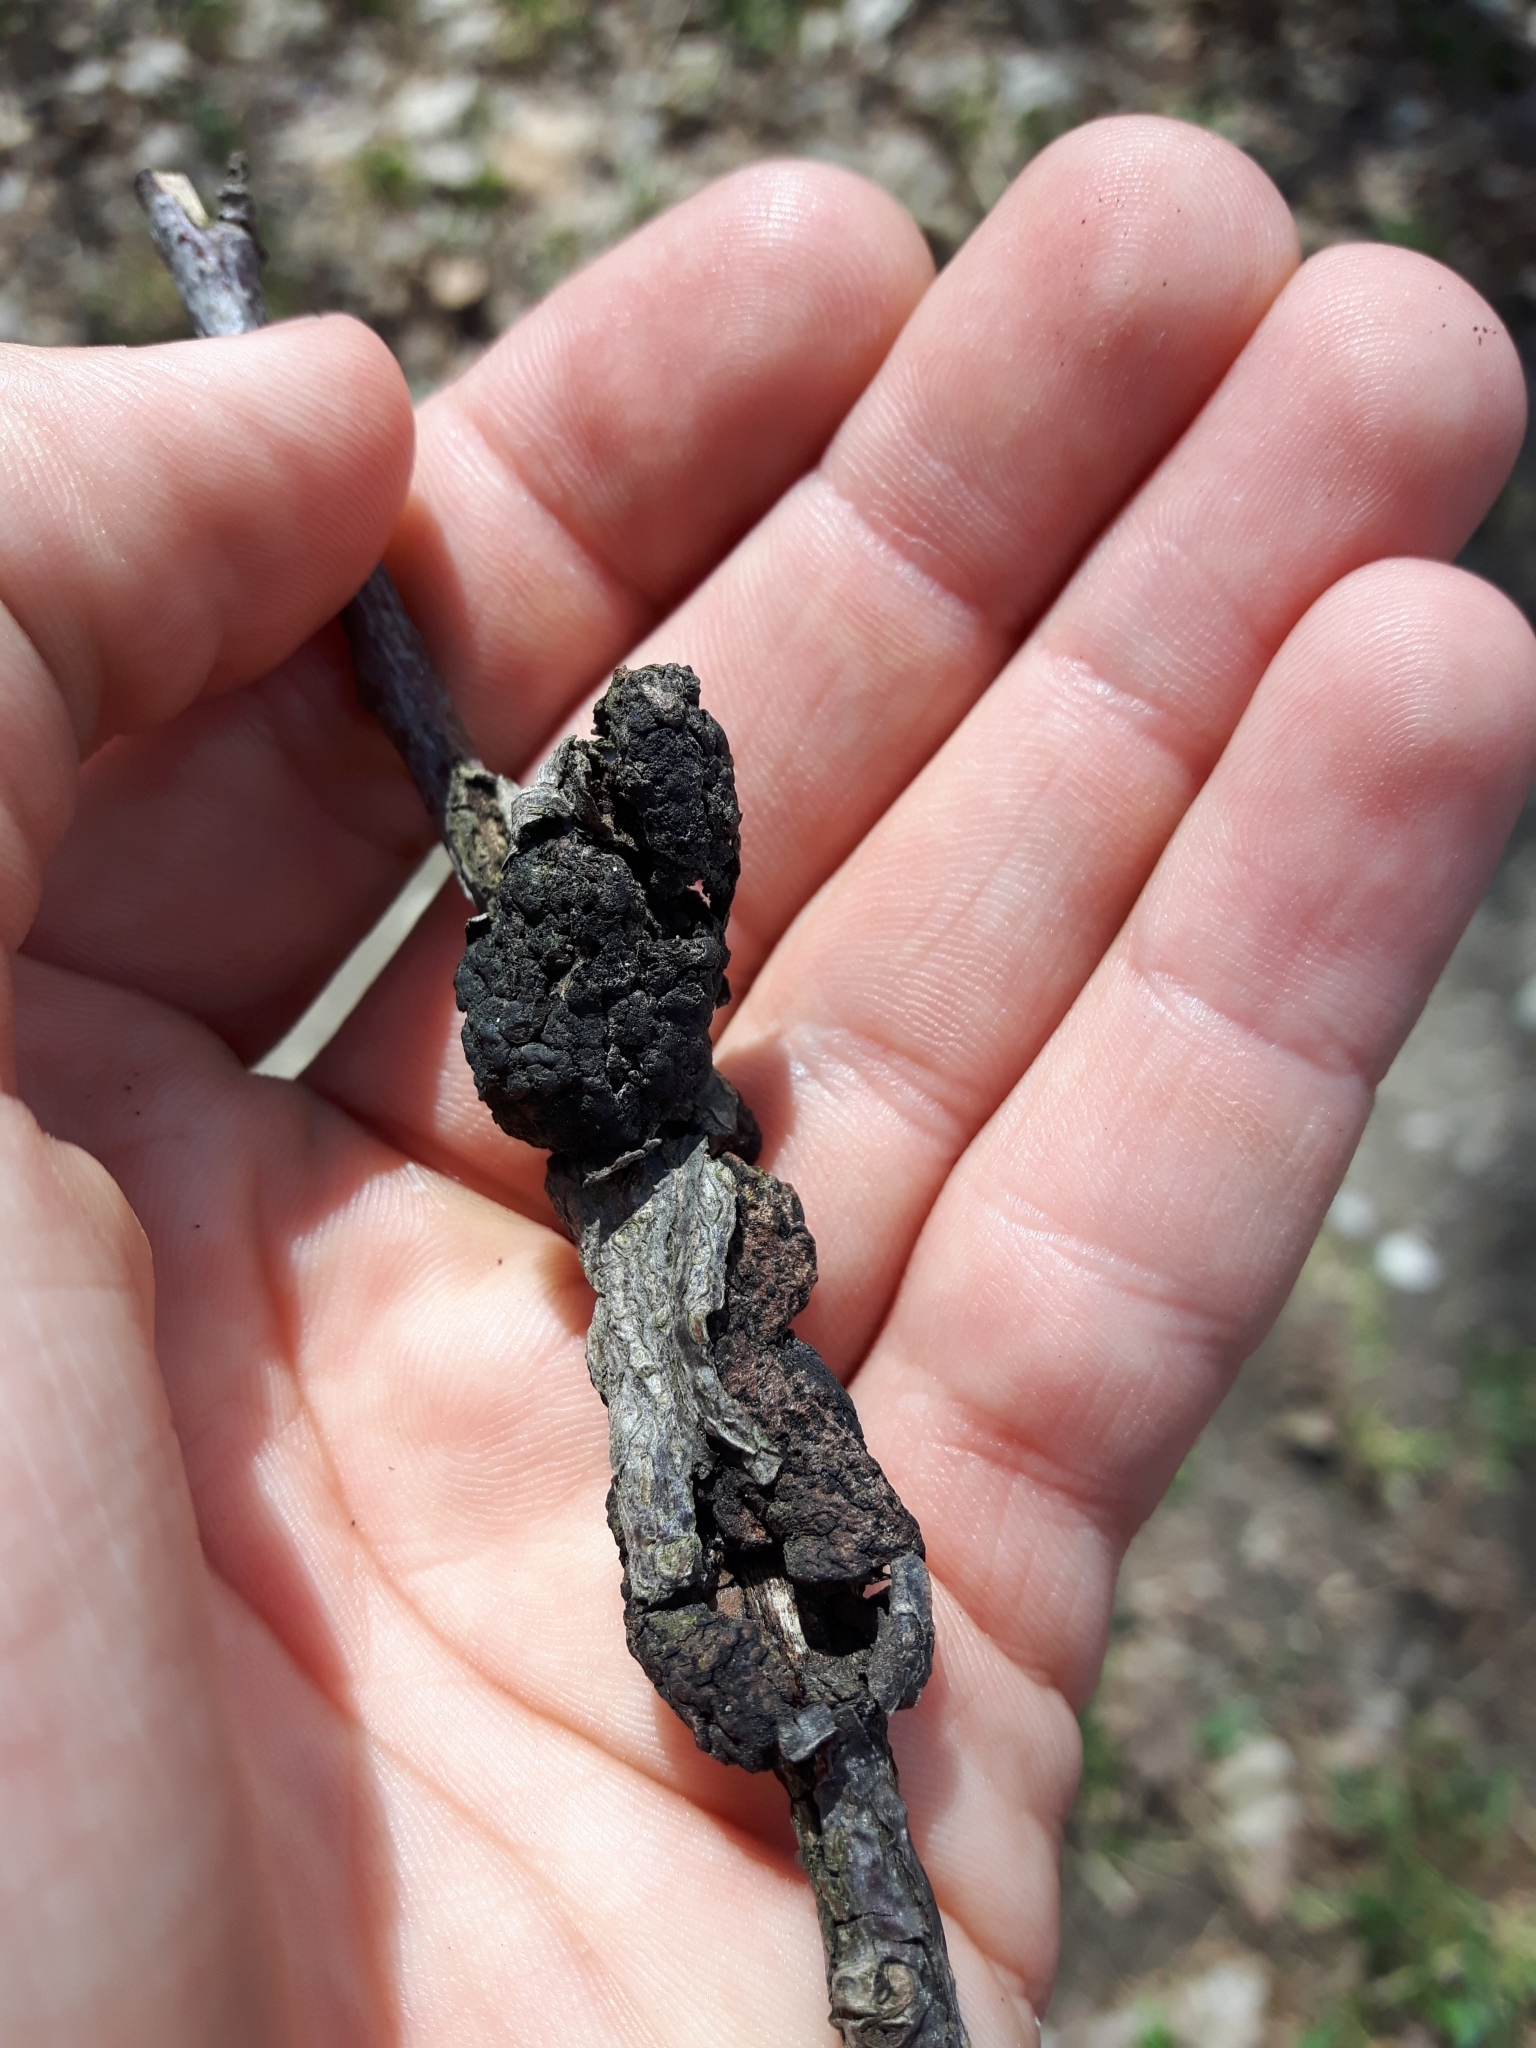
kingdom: Fungi
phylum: Ascomycota
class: Dothideomycetes
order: Venturiales
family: Venturiaceae
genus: Apiosporina
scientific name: Apiosporina morbosa
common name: Black knot
